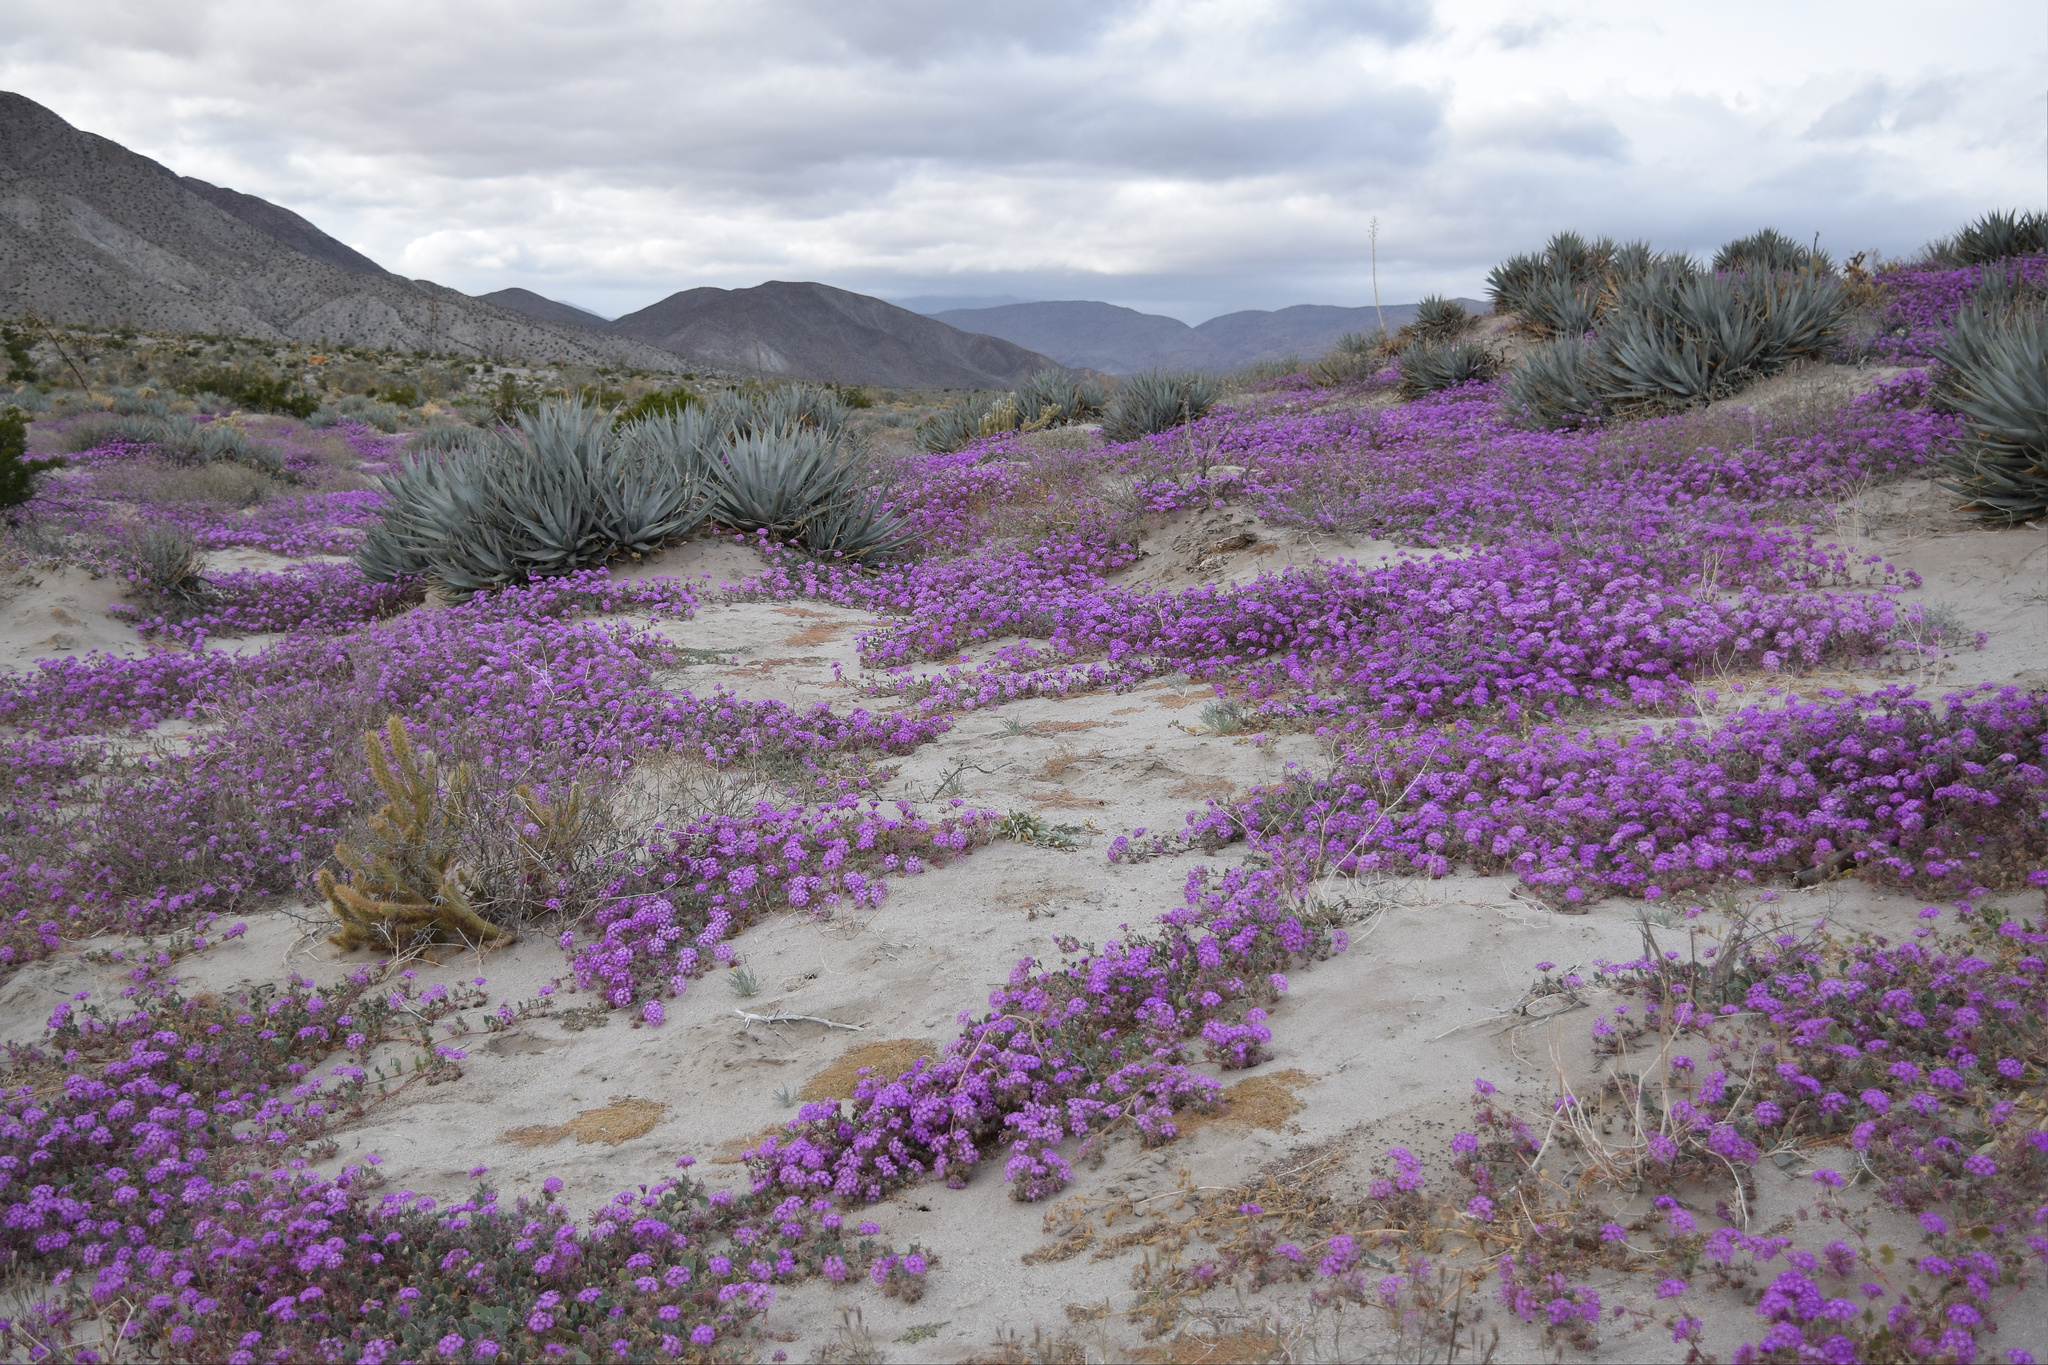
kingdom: Plantae
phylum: Tracheophyta
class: Magnoliopsida
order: Caryophyllales
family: Nyctaginaceae
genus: Abronia
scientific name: Abronia villosa
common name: Desert sand-verbena
